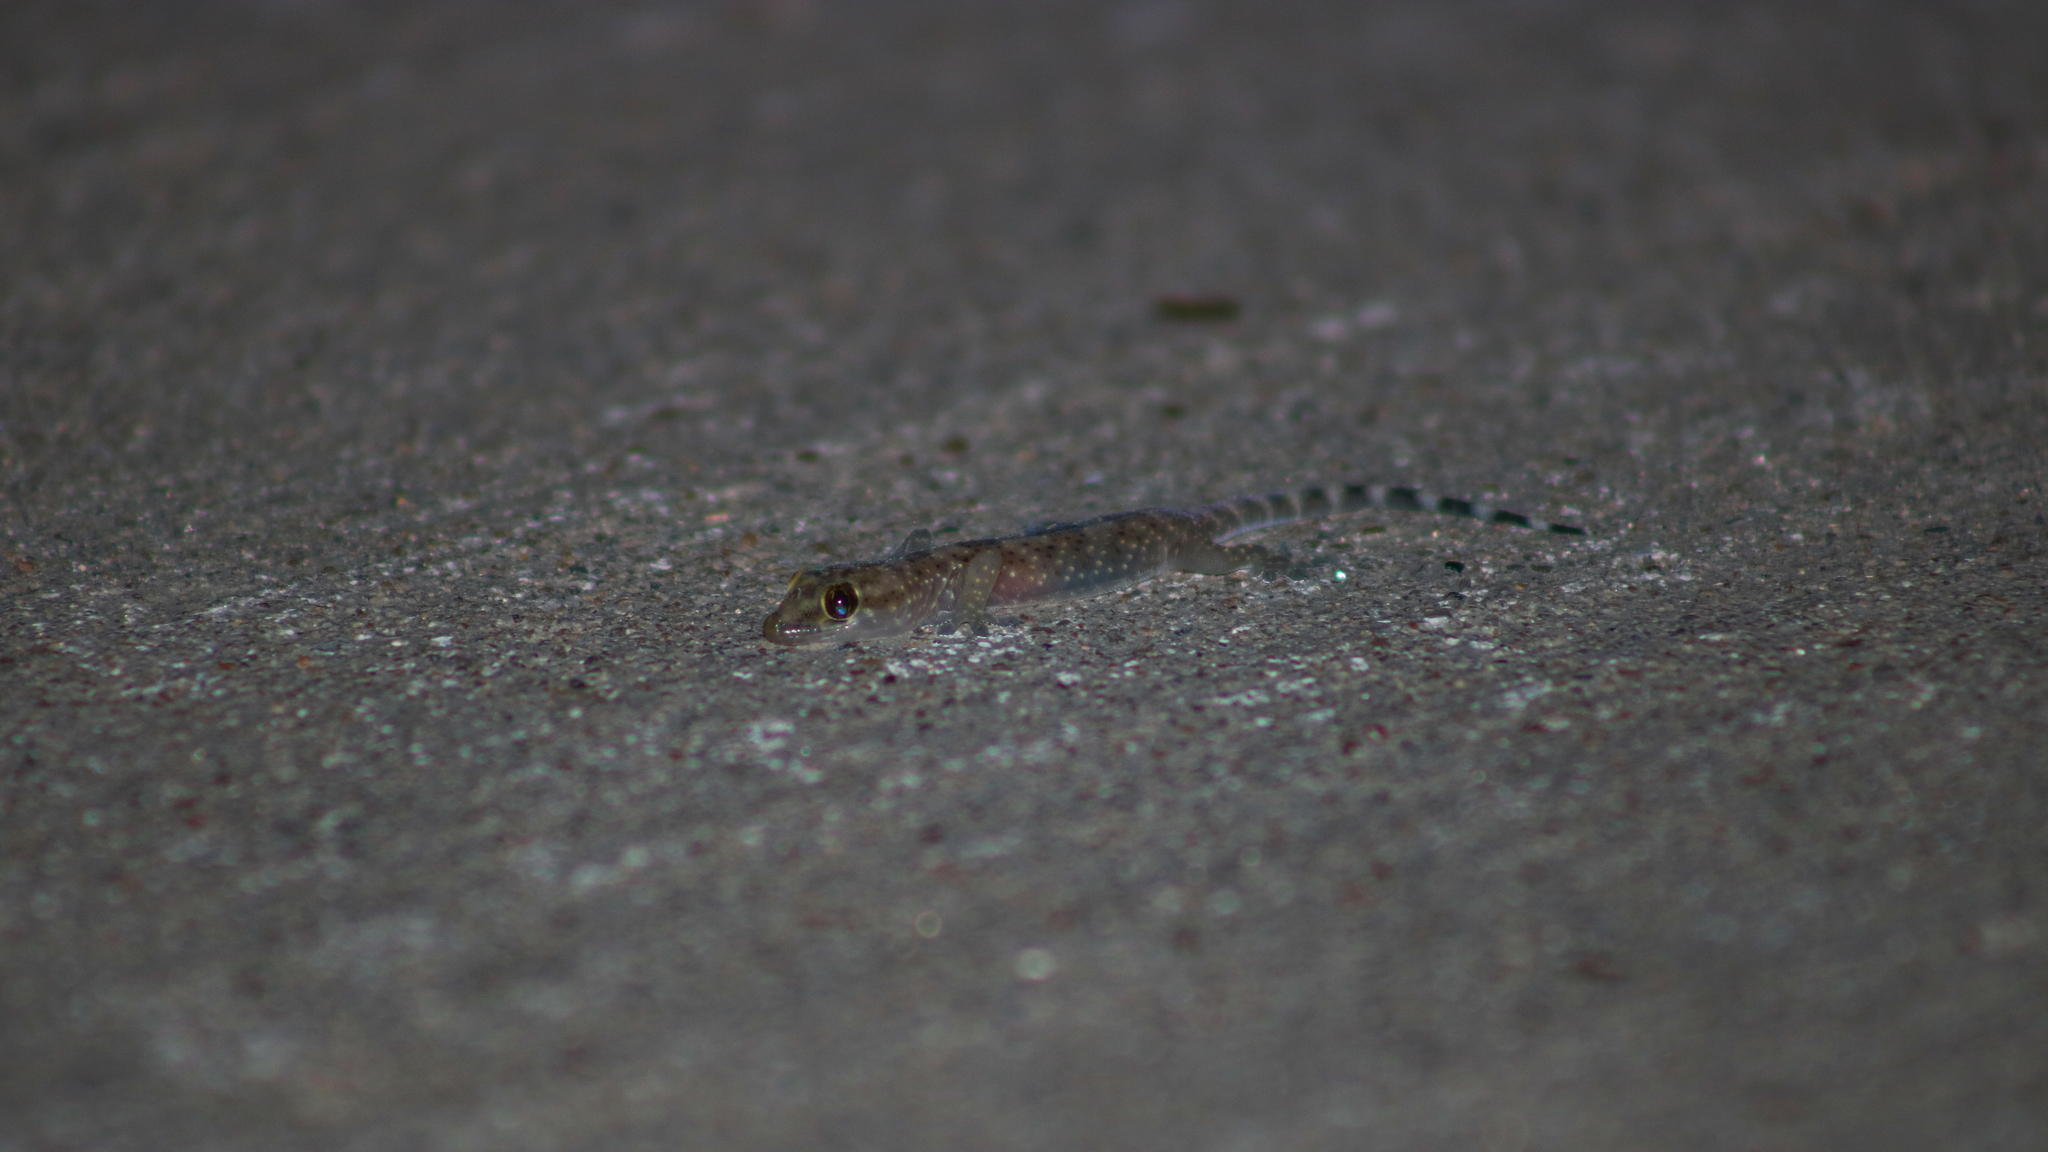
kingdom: Animalia
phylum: Chordata
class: Squamata
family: Gekkonidae
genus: Hemidactylus
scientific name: Hemidactylus turcicus
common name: Turkish gecko
